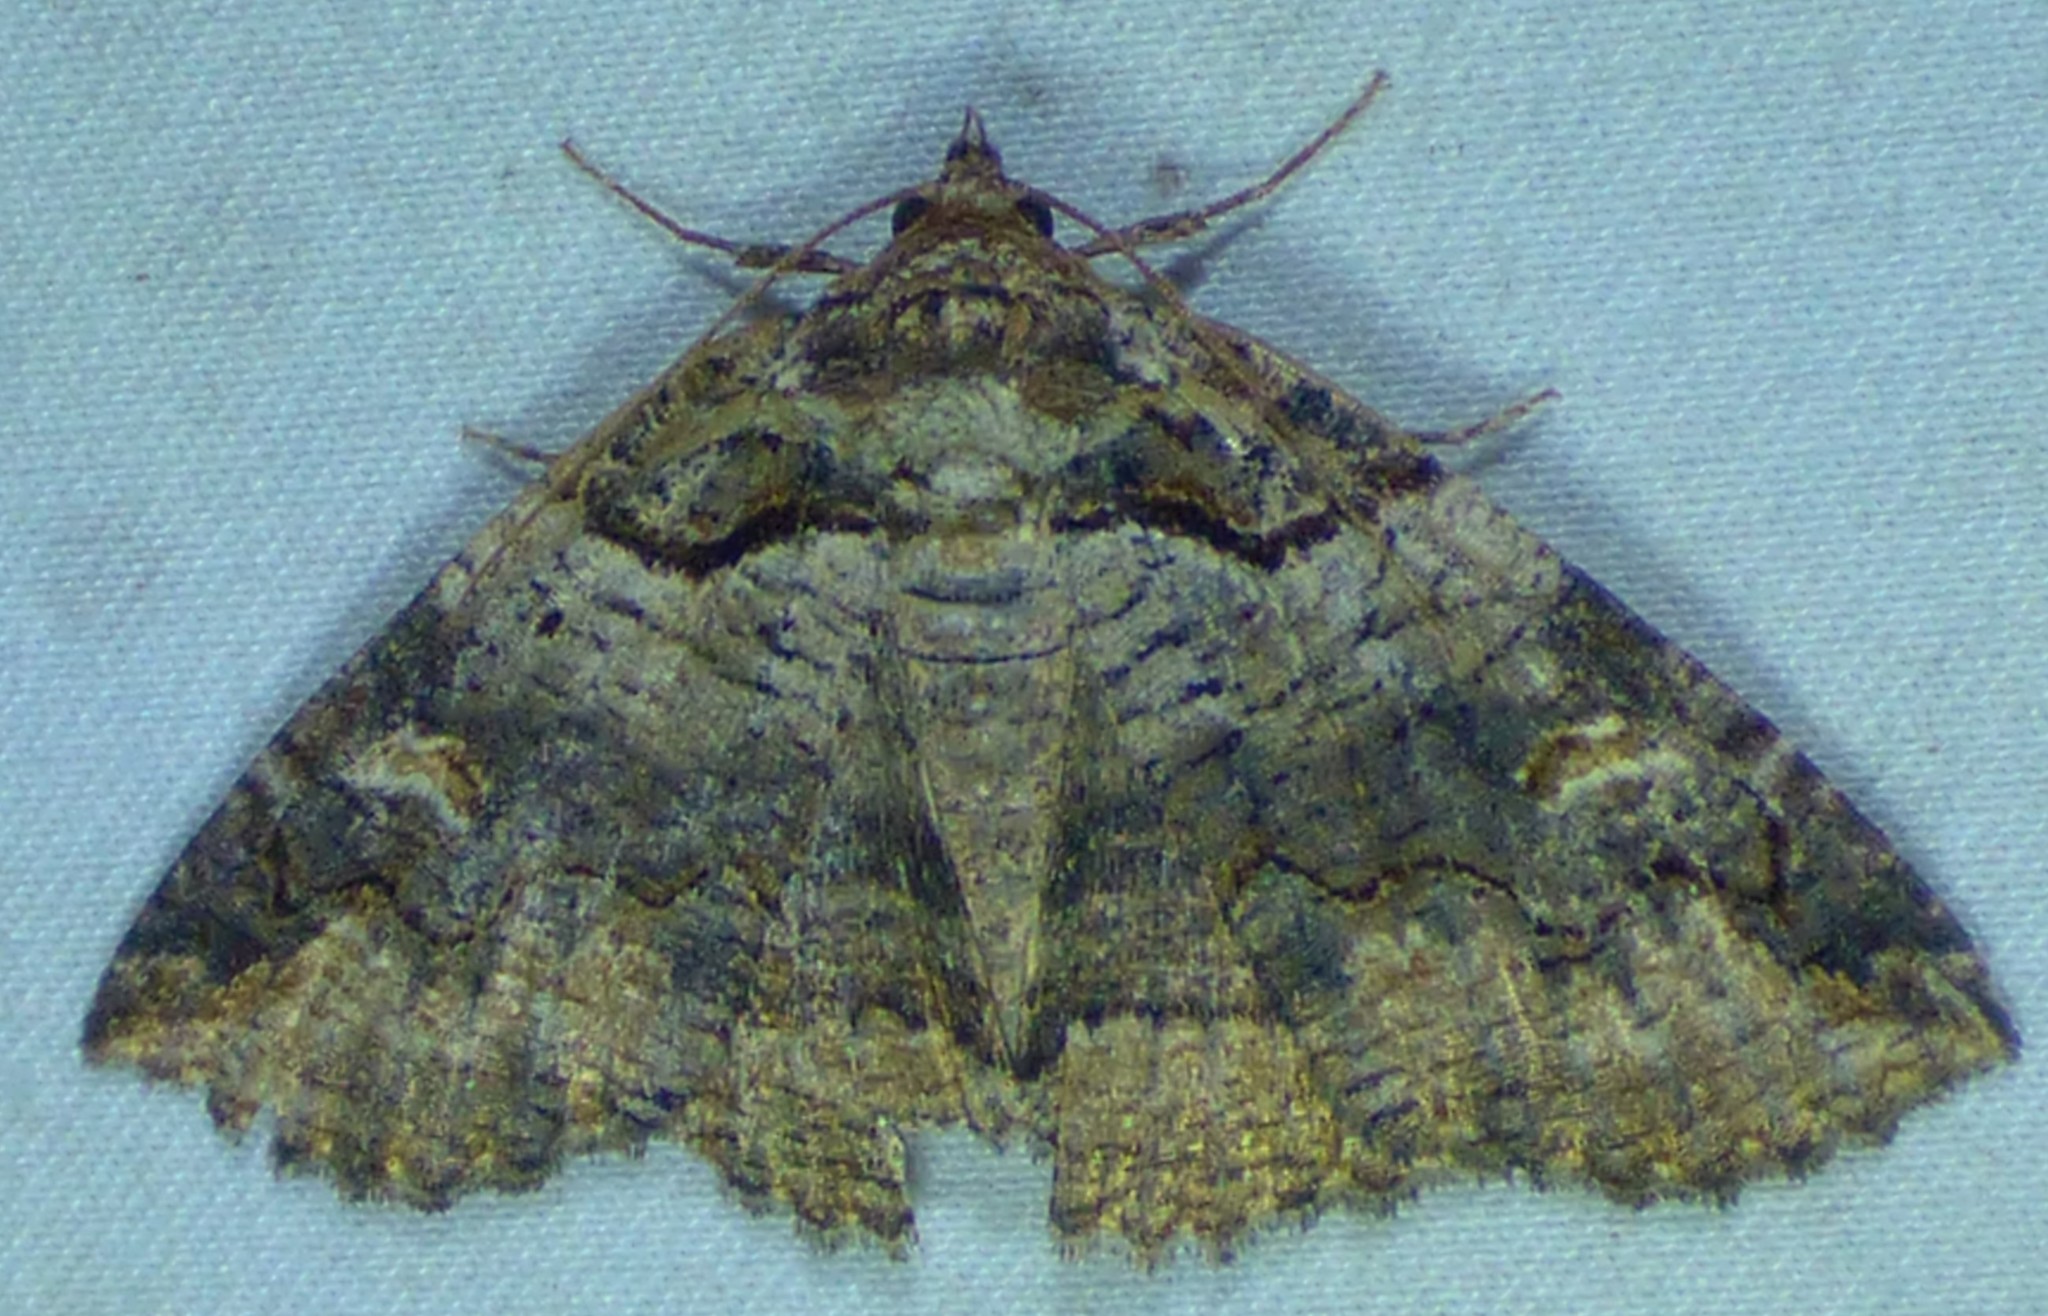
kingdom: Animalia
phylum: Arthropoda
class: Insecta
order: Lepidoptera
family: Erebidae
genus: Zale
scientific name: Zale intenta
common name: Intent zale moth
